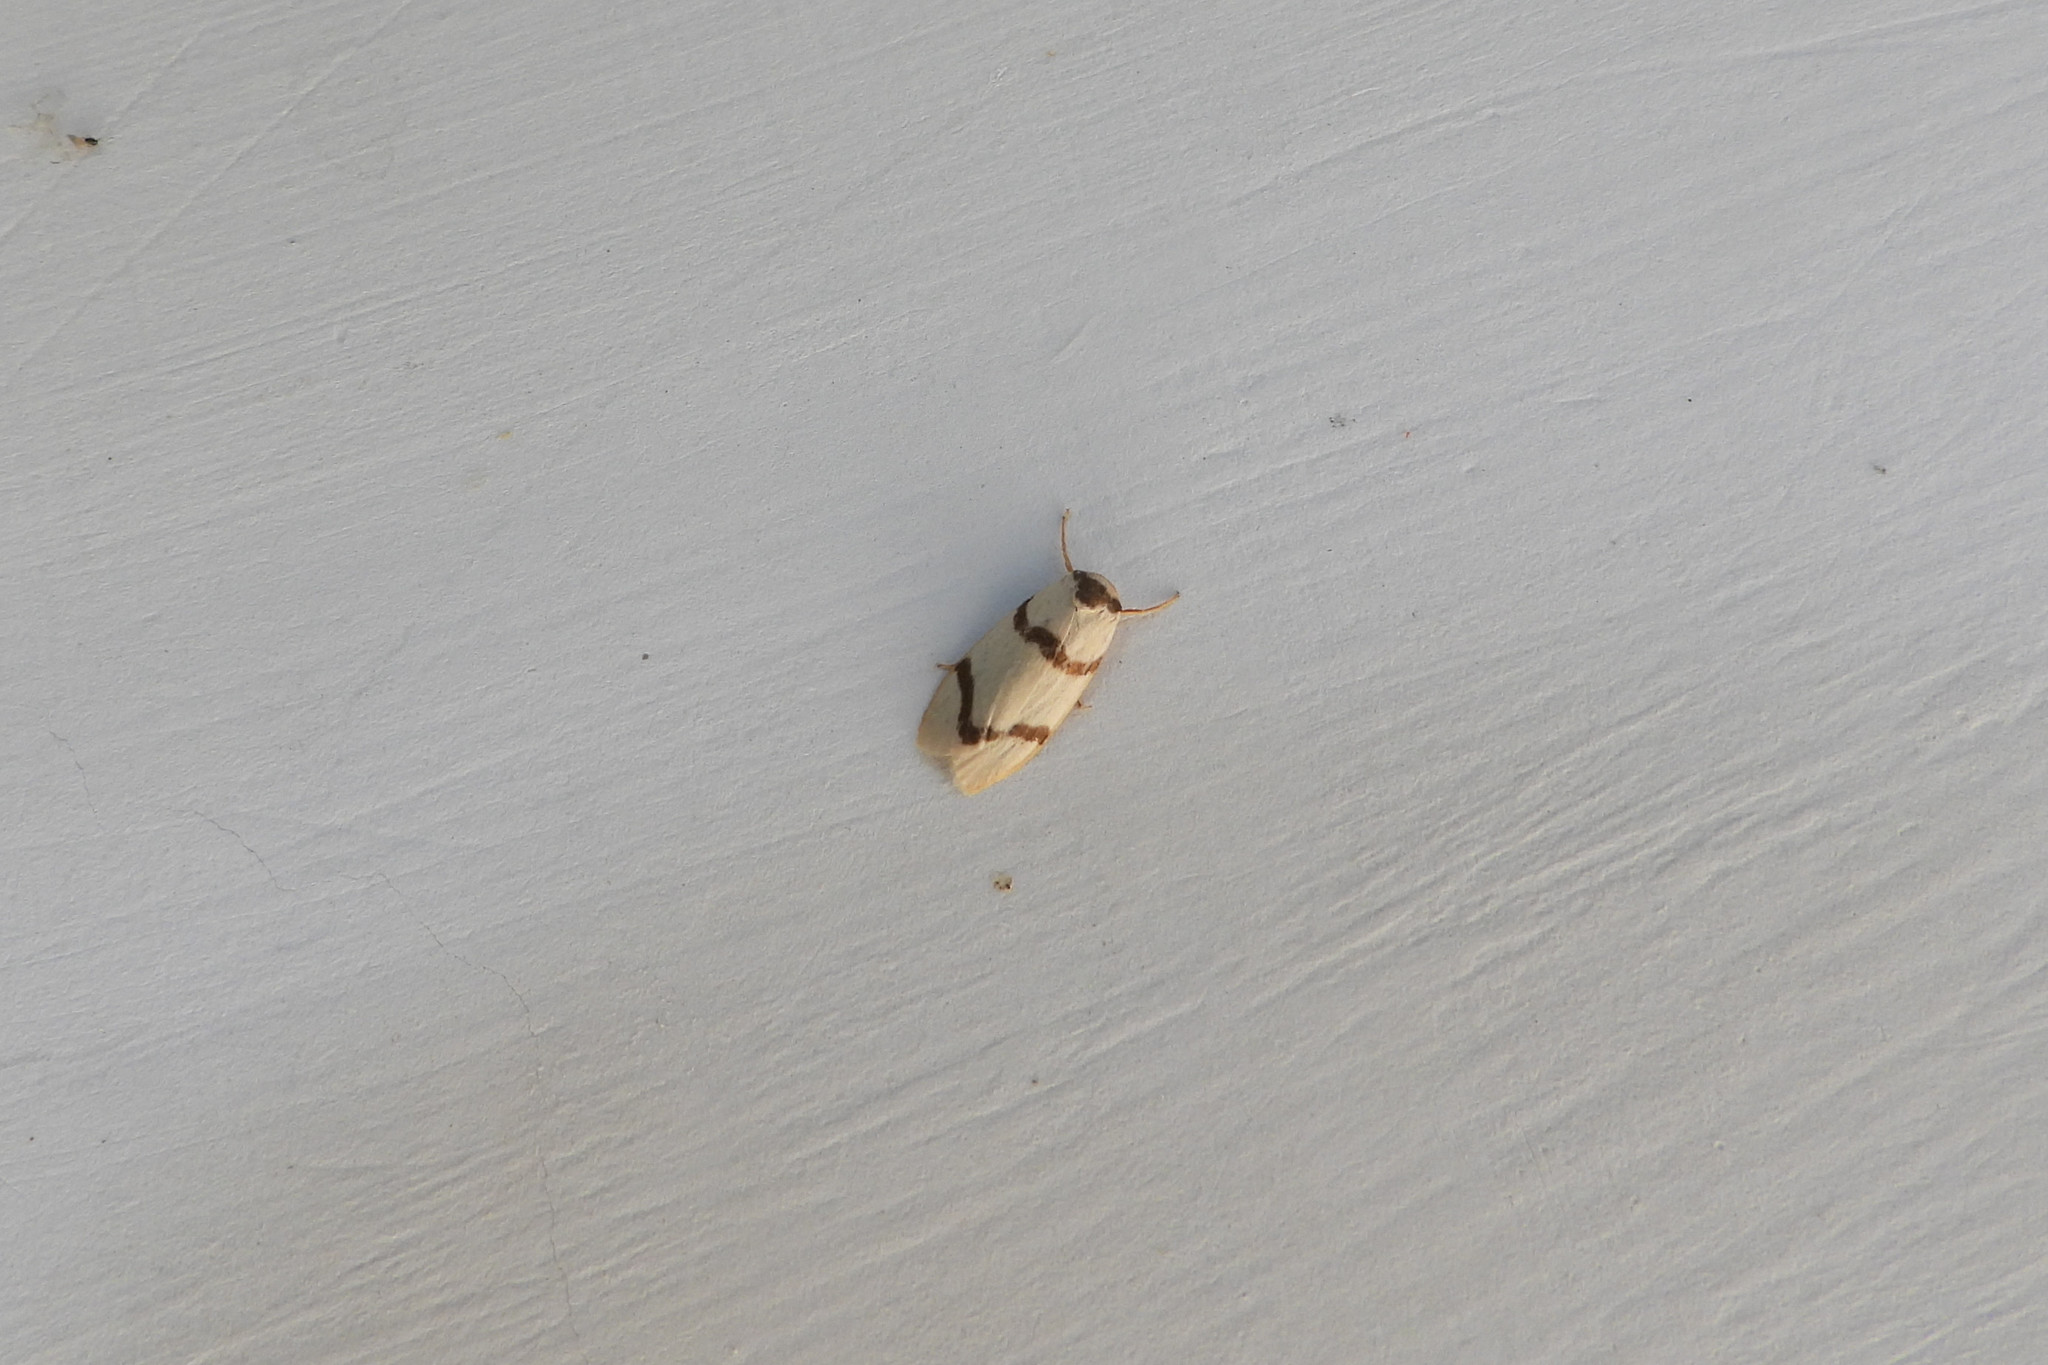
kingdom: Animalia
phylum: Arthropoda
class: Insecta
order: Lepidoptera
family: Erebidae
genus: Padenia
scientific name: Padenia duplicana
